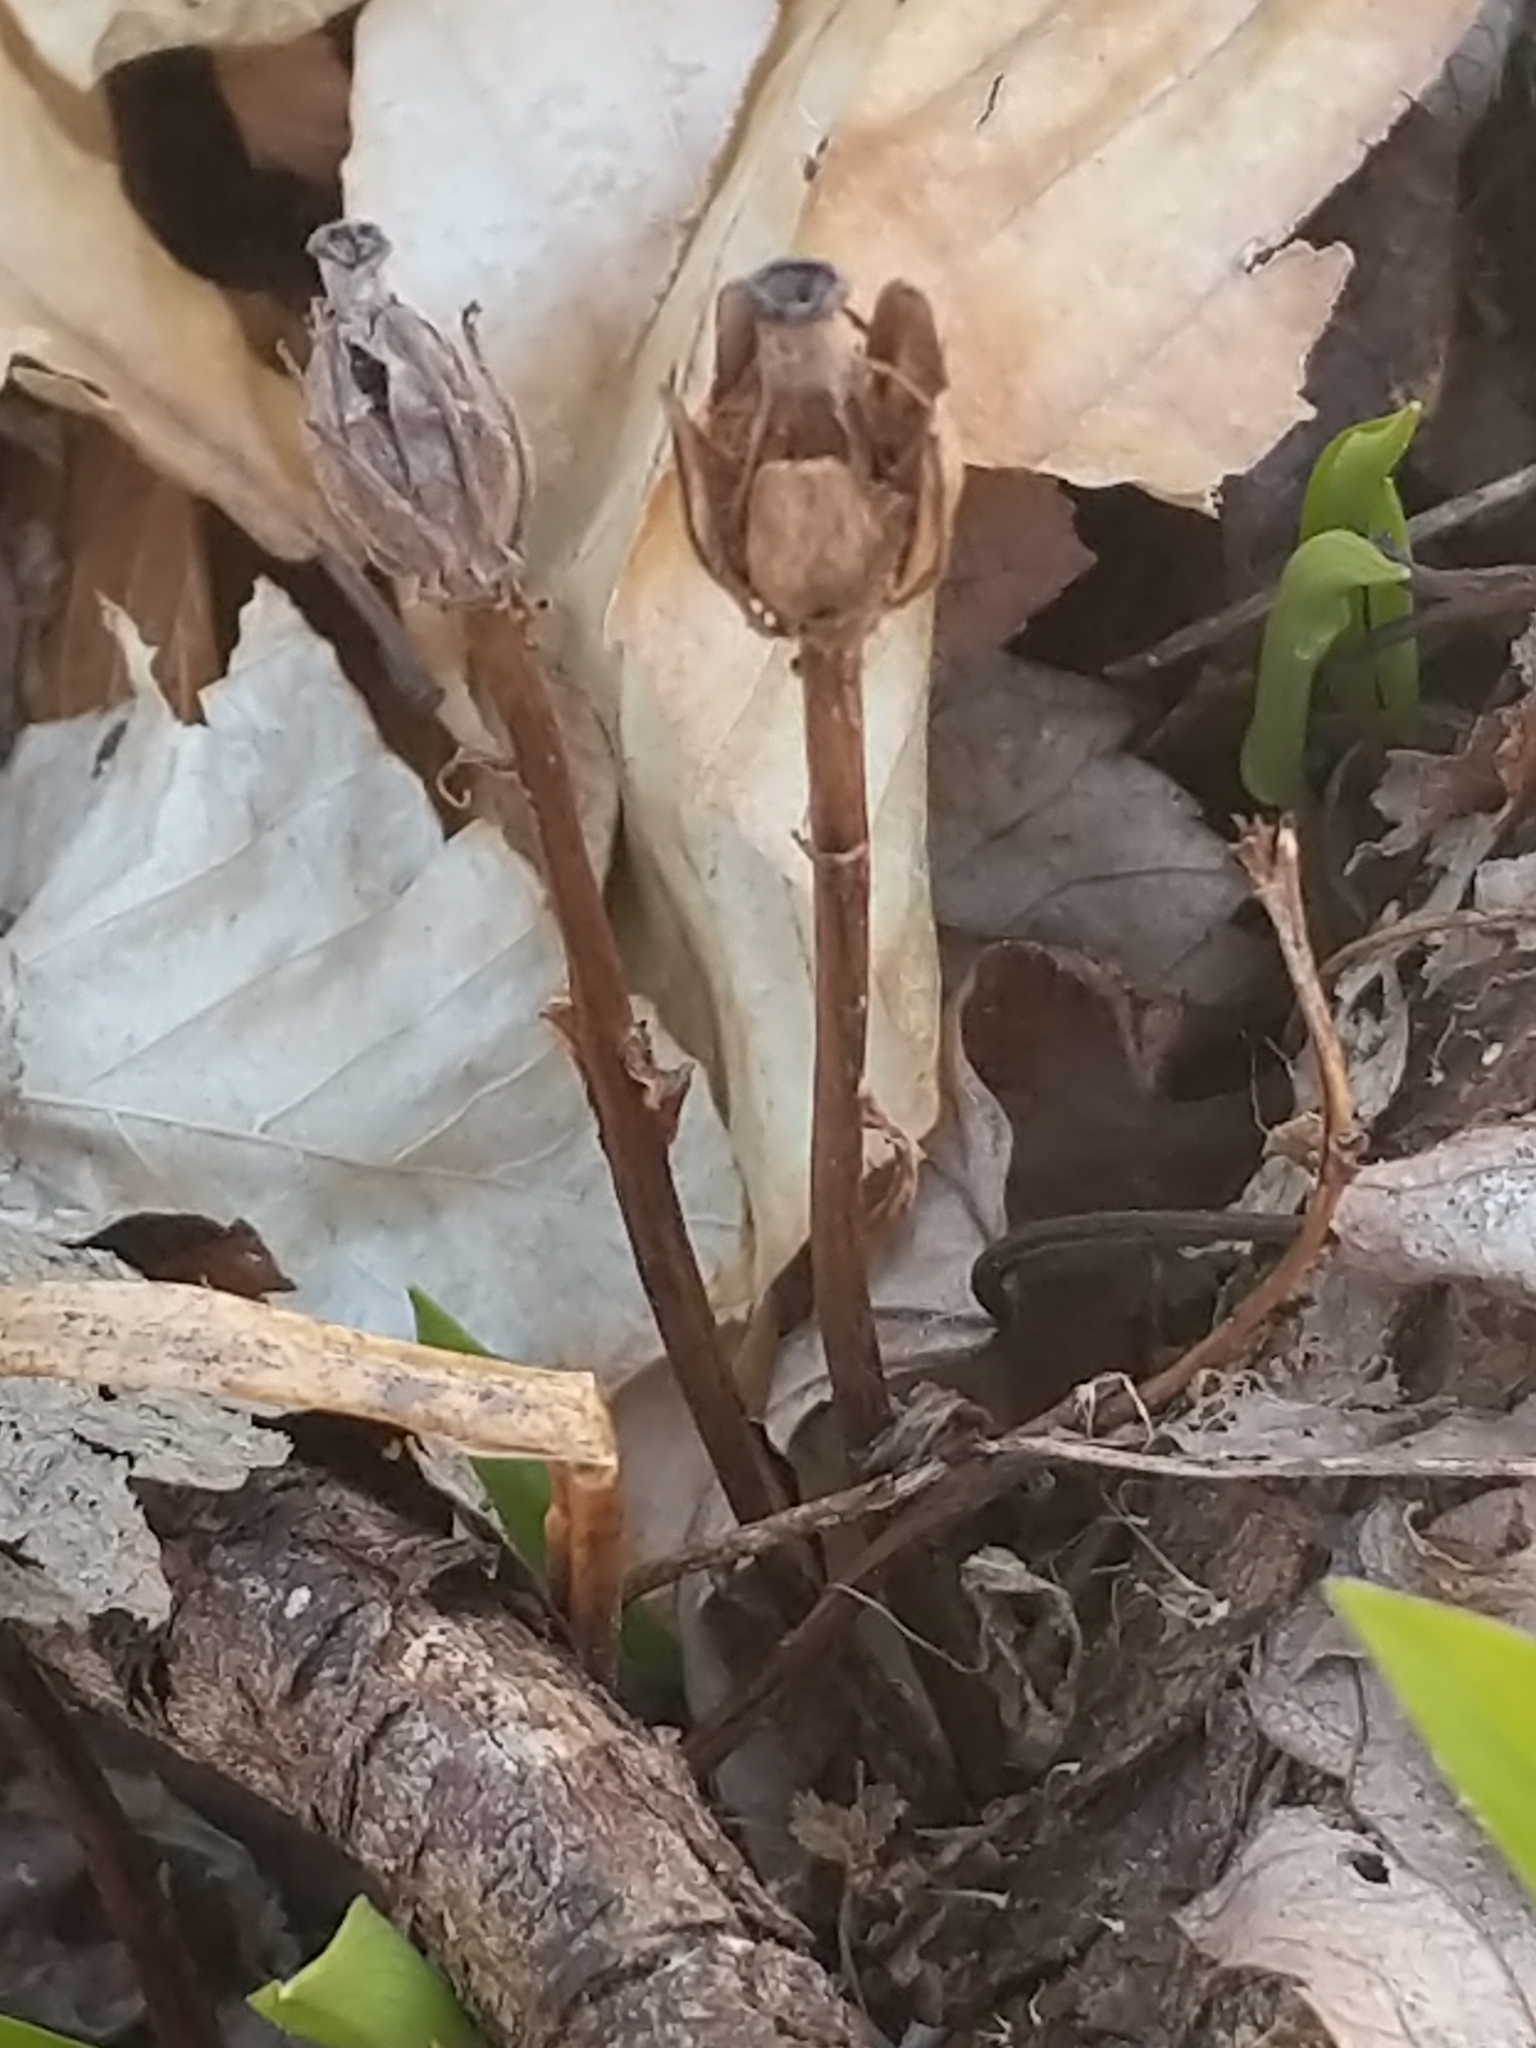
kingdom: Plantae
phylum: Tracheophyta
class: Magnoliopsida
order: Ericales
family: Ericaceae
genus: Monotropa
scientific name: Monotropa uniflora
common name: Convulsion root
